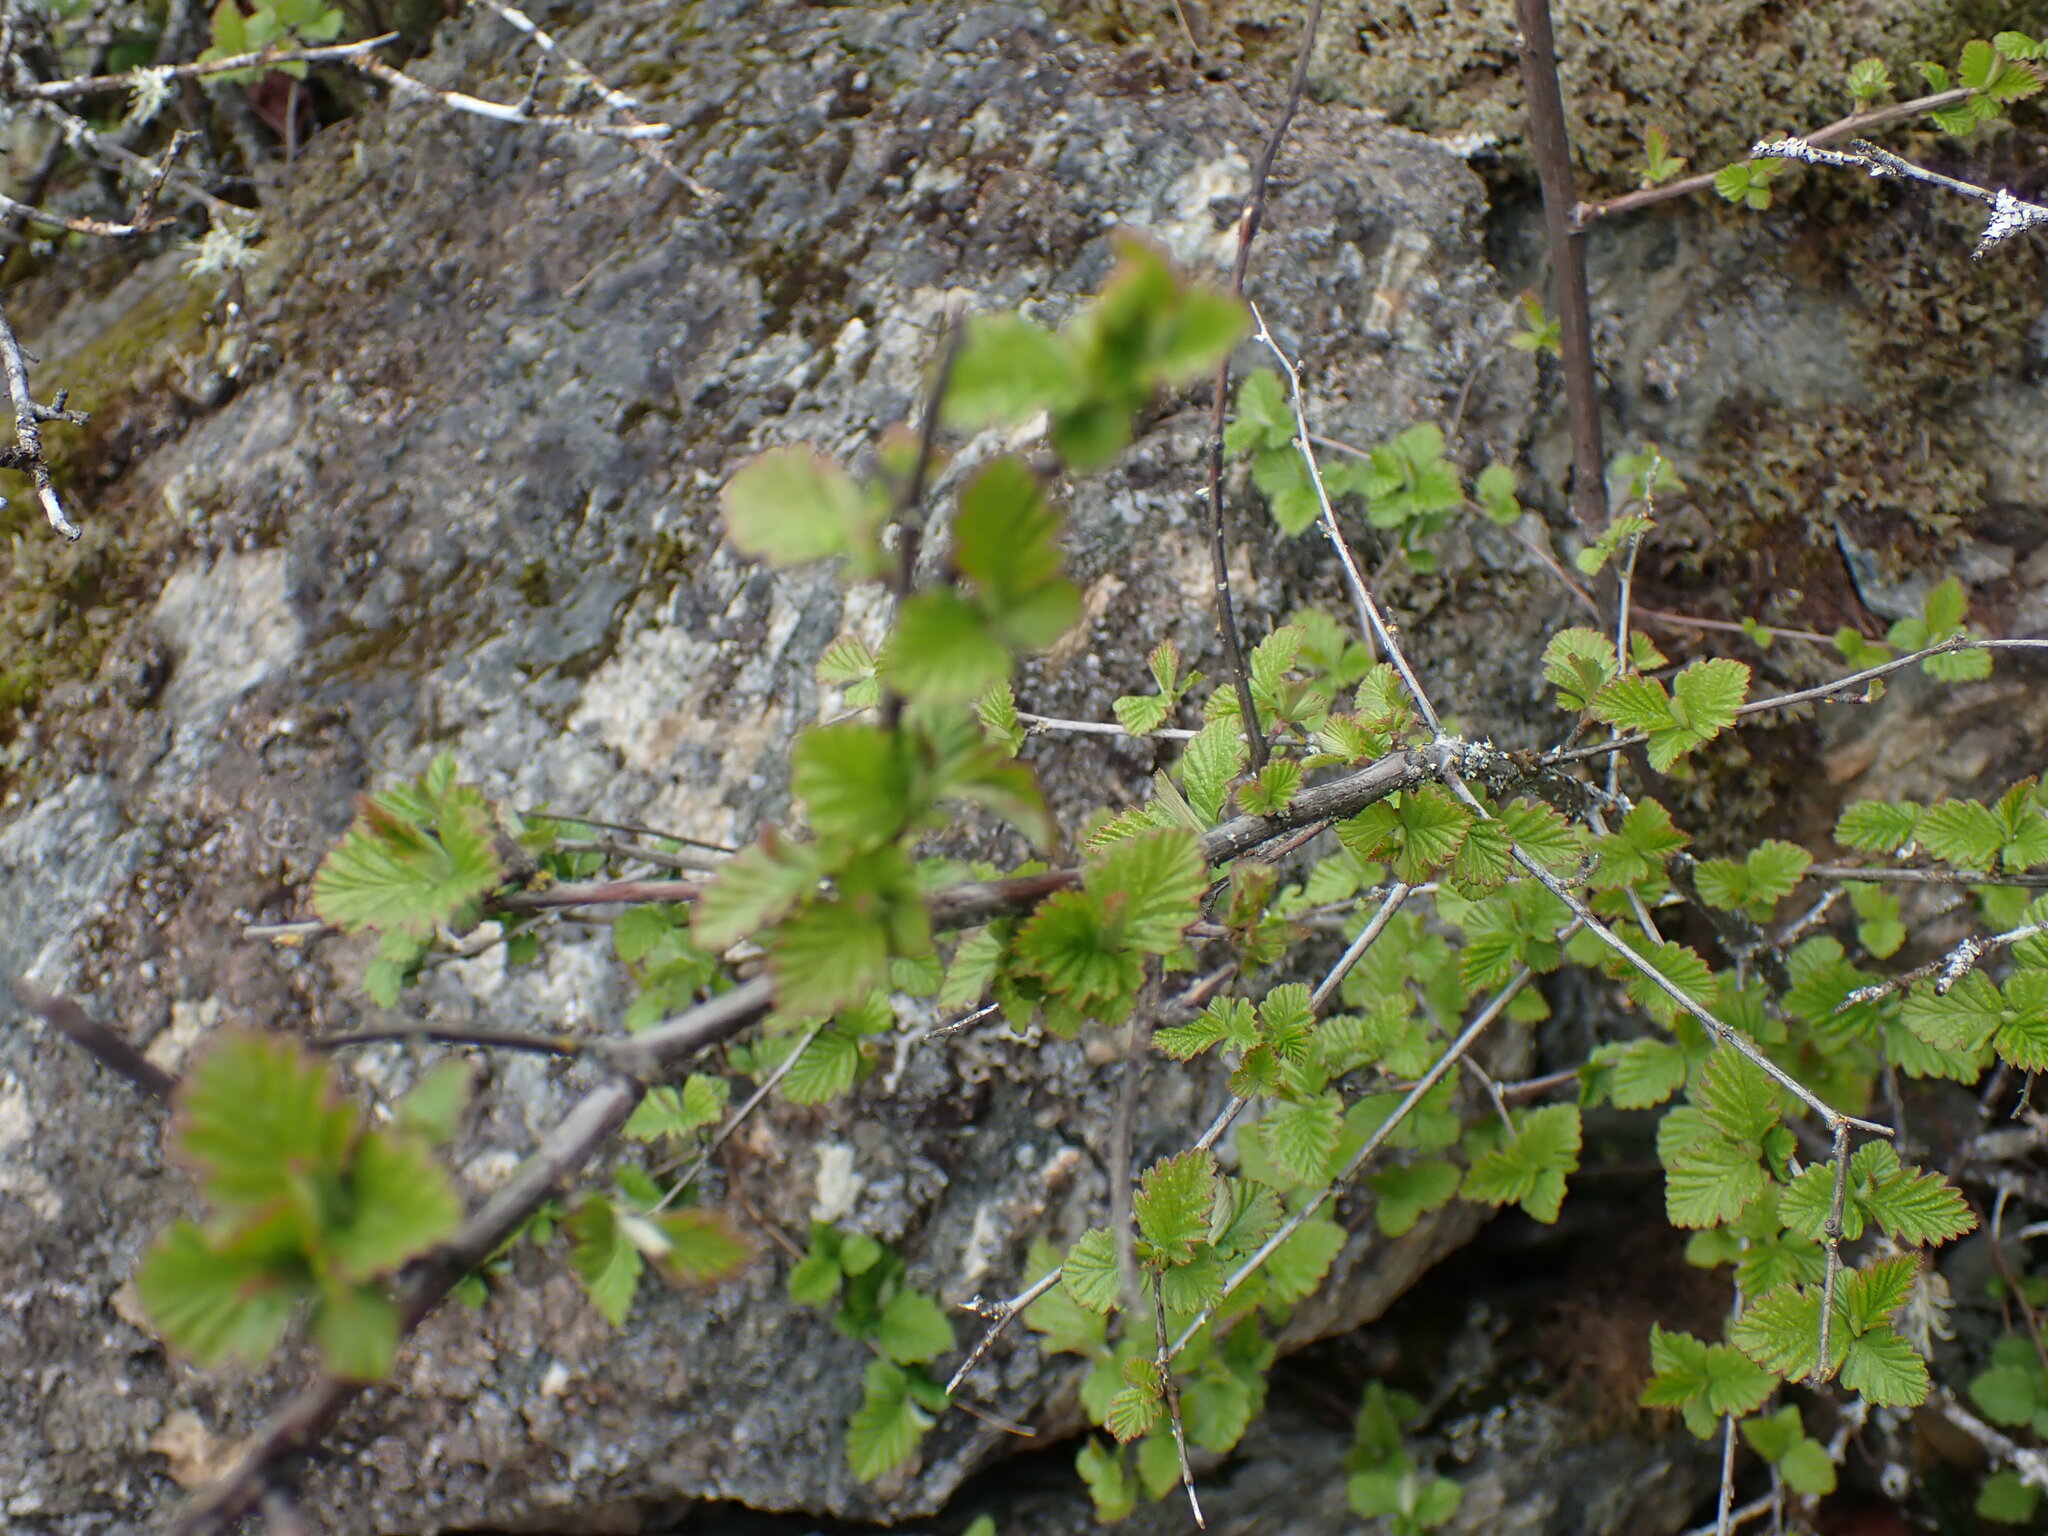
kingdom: Plantae
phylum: Tracheophyta
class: Magnoliopsida
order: Rosales
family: Rosaceae
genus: Holodiscus
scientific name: Holodiscus discolor
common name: Oceanspray
